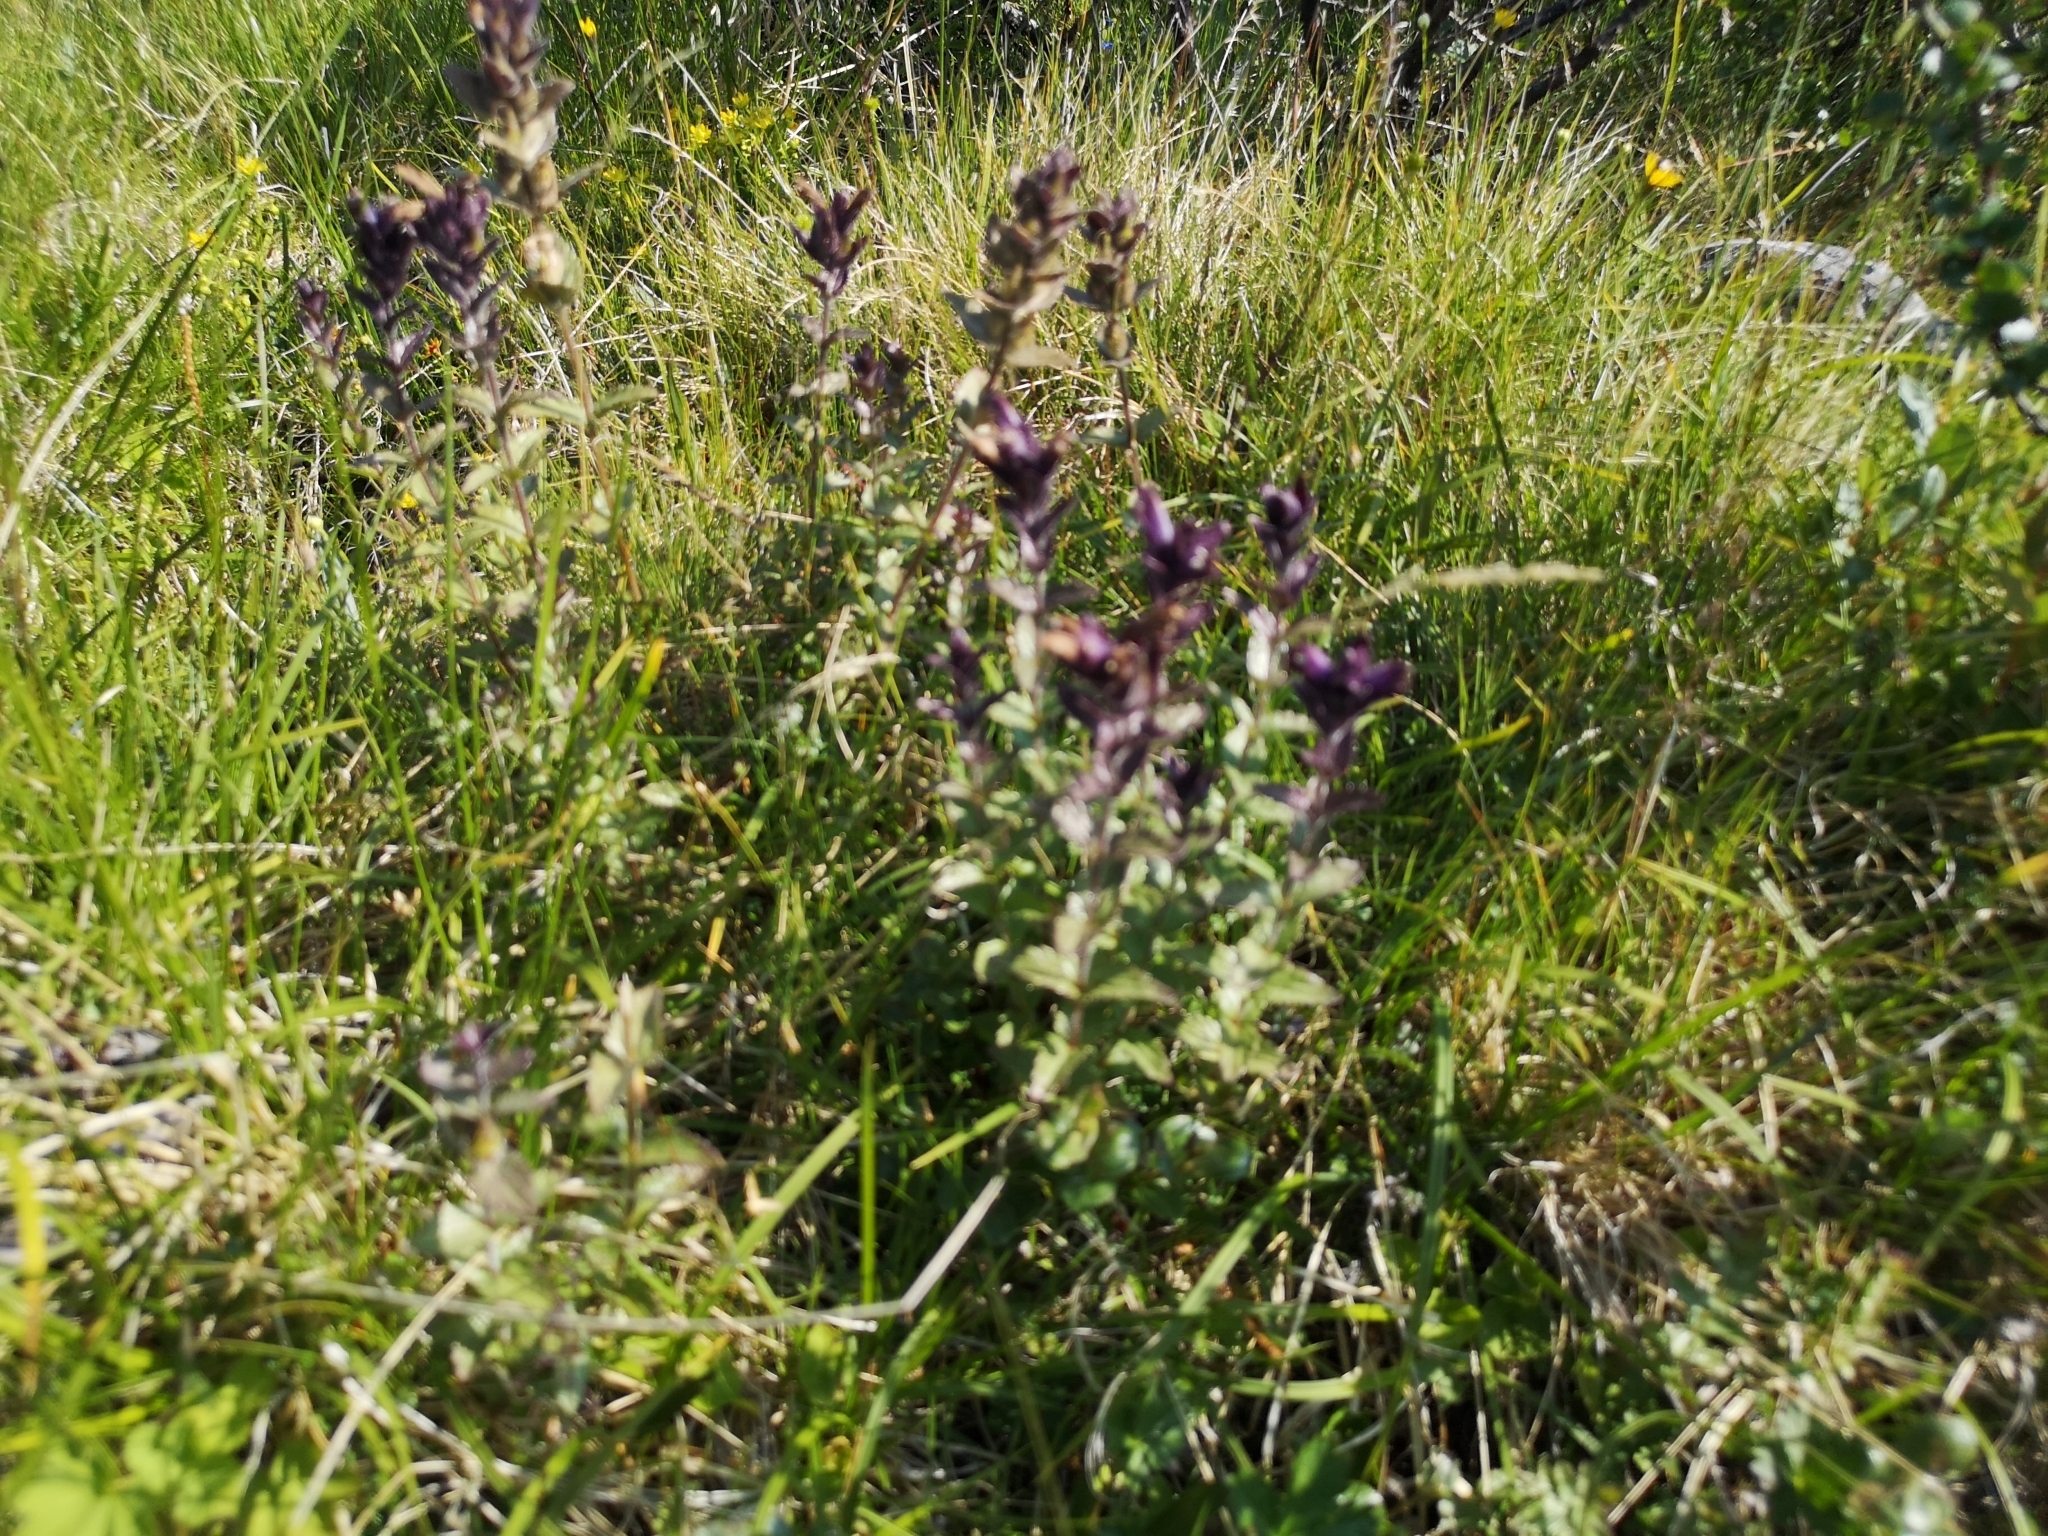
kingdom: Plantae
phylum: Tracheophyta
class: Magnoliopsida
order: Lamiales
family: Orobanchaceae
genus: Bartsia
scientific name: Bartsia alpina
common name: Alpine bartsia
